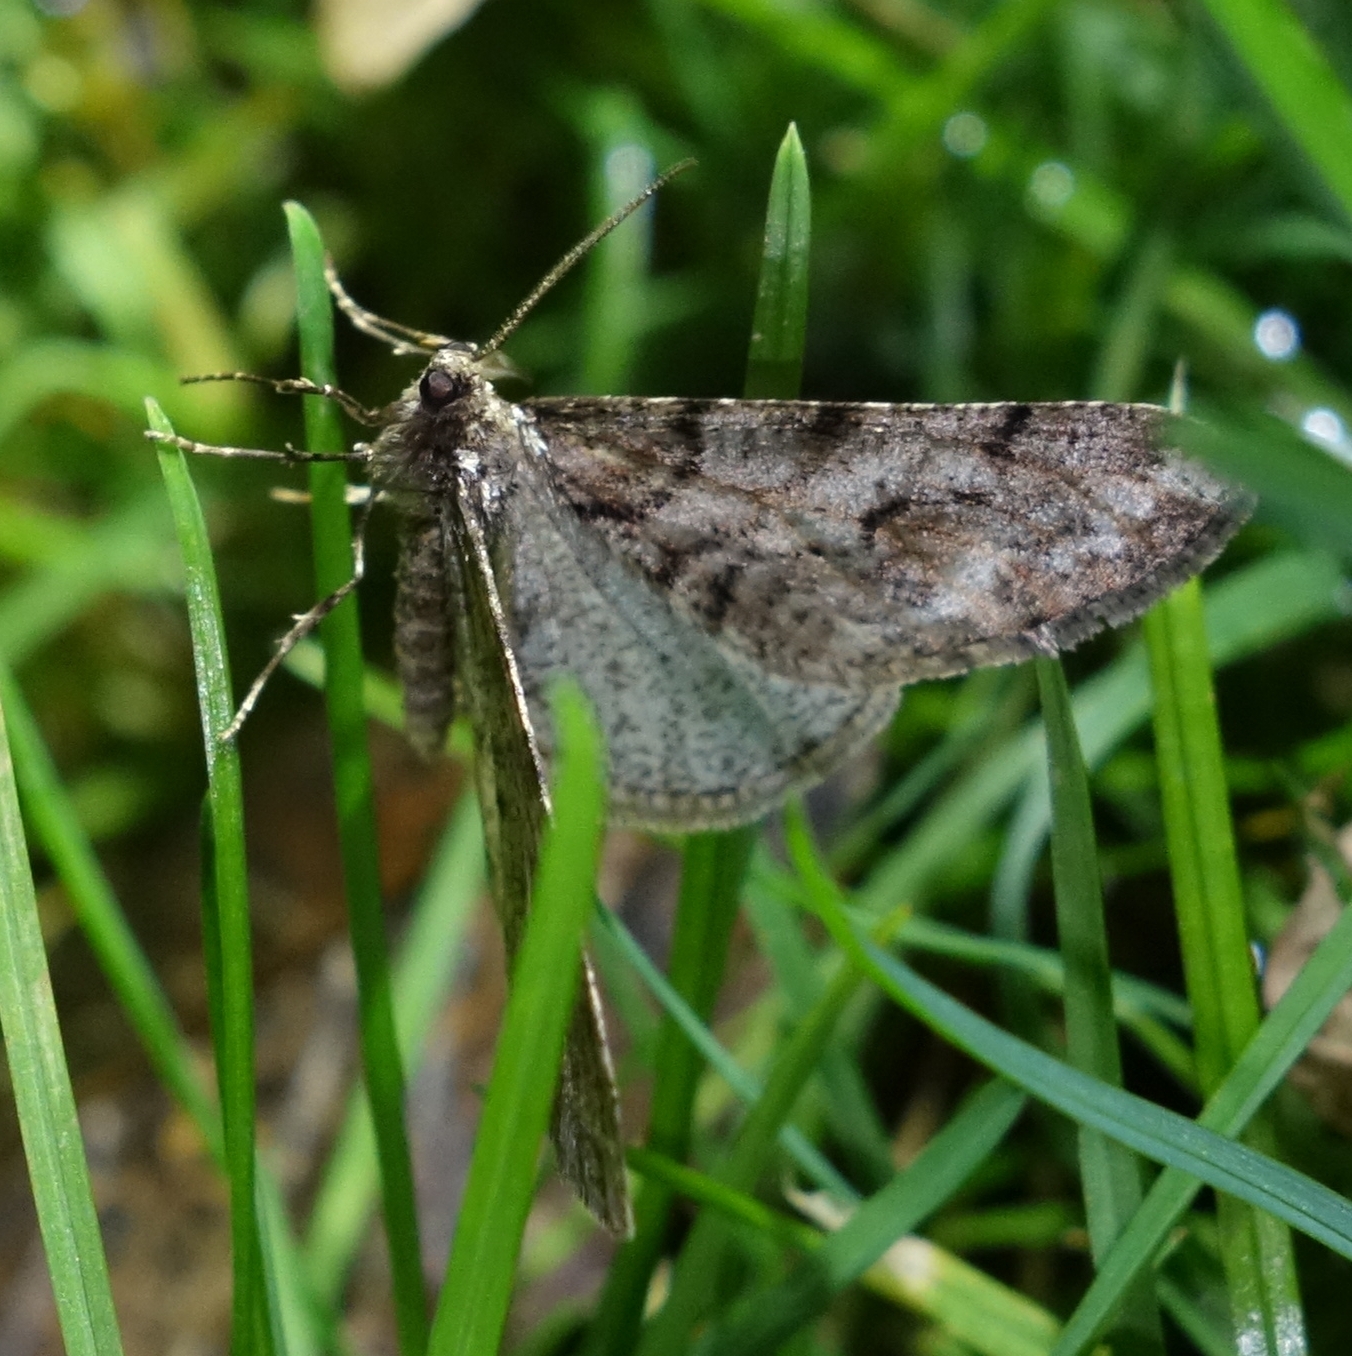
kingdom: Animalia
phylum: Arthropoda
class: Insecta
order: Lepidoptera
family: Geometridae
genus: Agriopis
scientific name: Agriopis leucophaearia
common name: Spring usher
